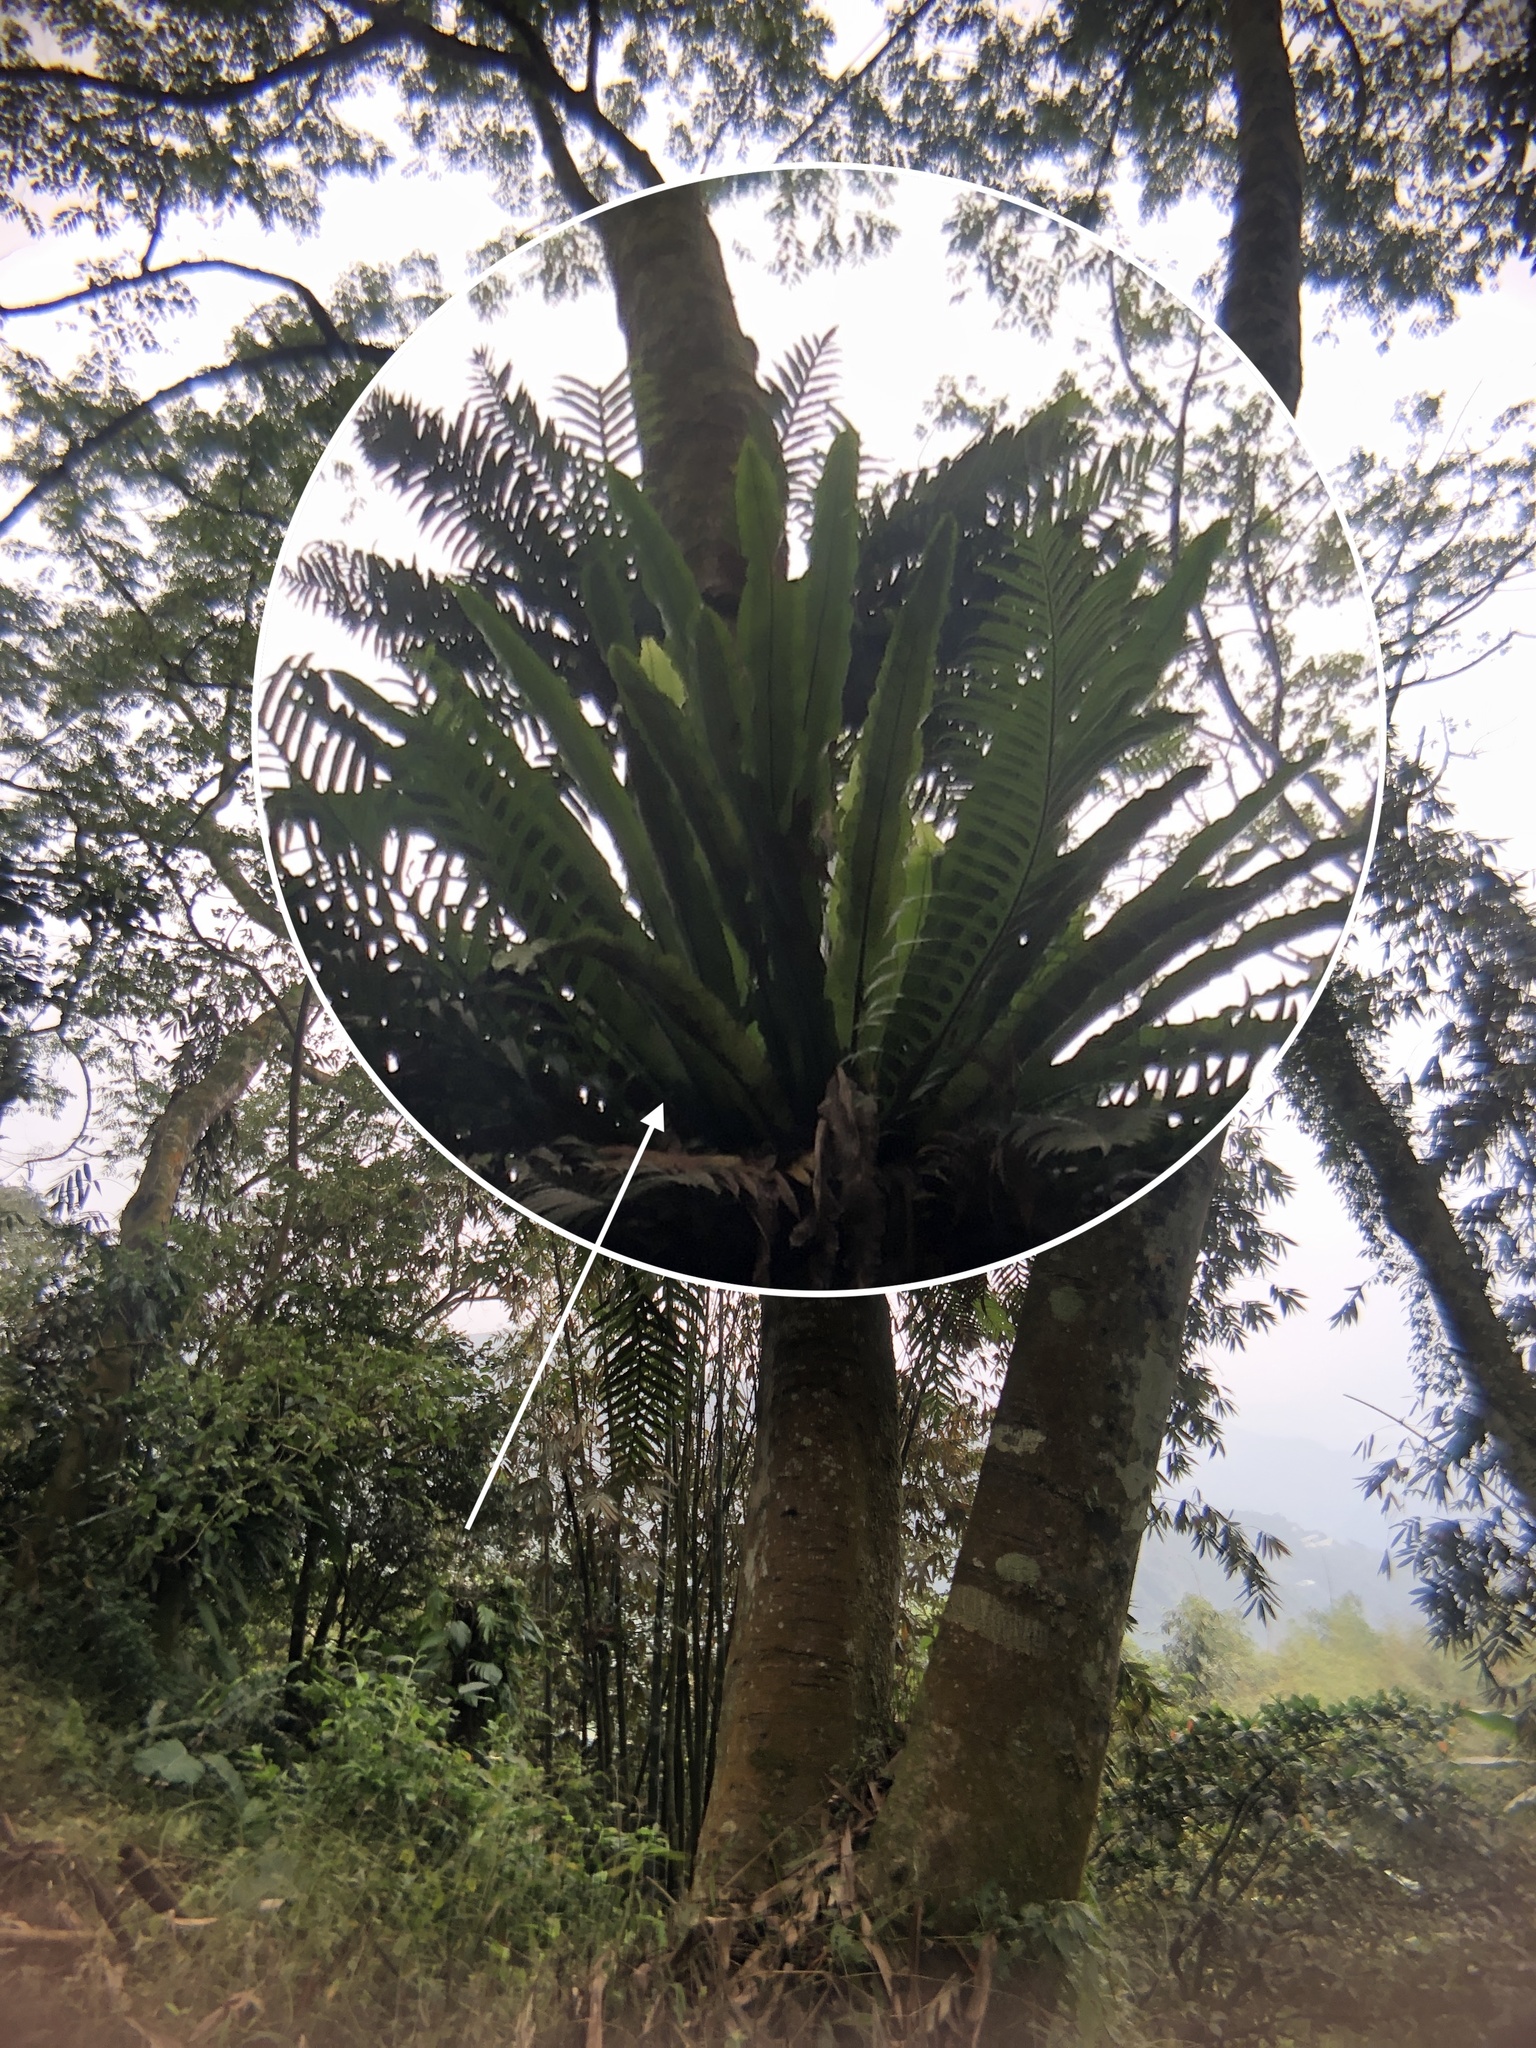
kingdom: Plantae
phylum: Tracheophyta
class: Polypodiopsida
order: Polypodiales
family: Aspleniaceae
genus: Asplenium
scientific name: Asplenium antiquum
